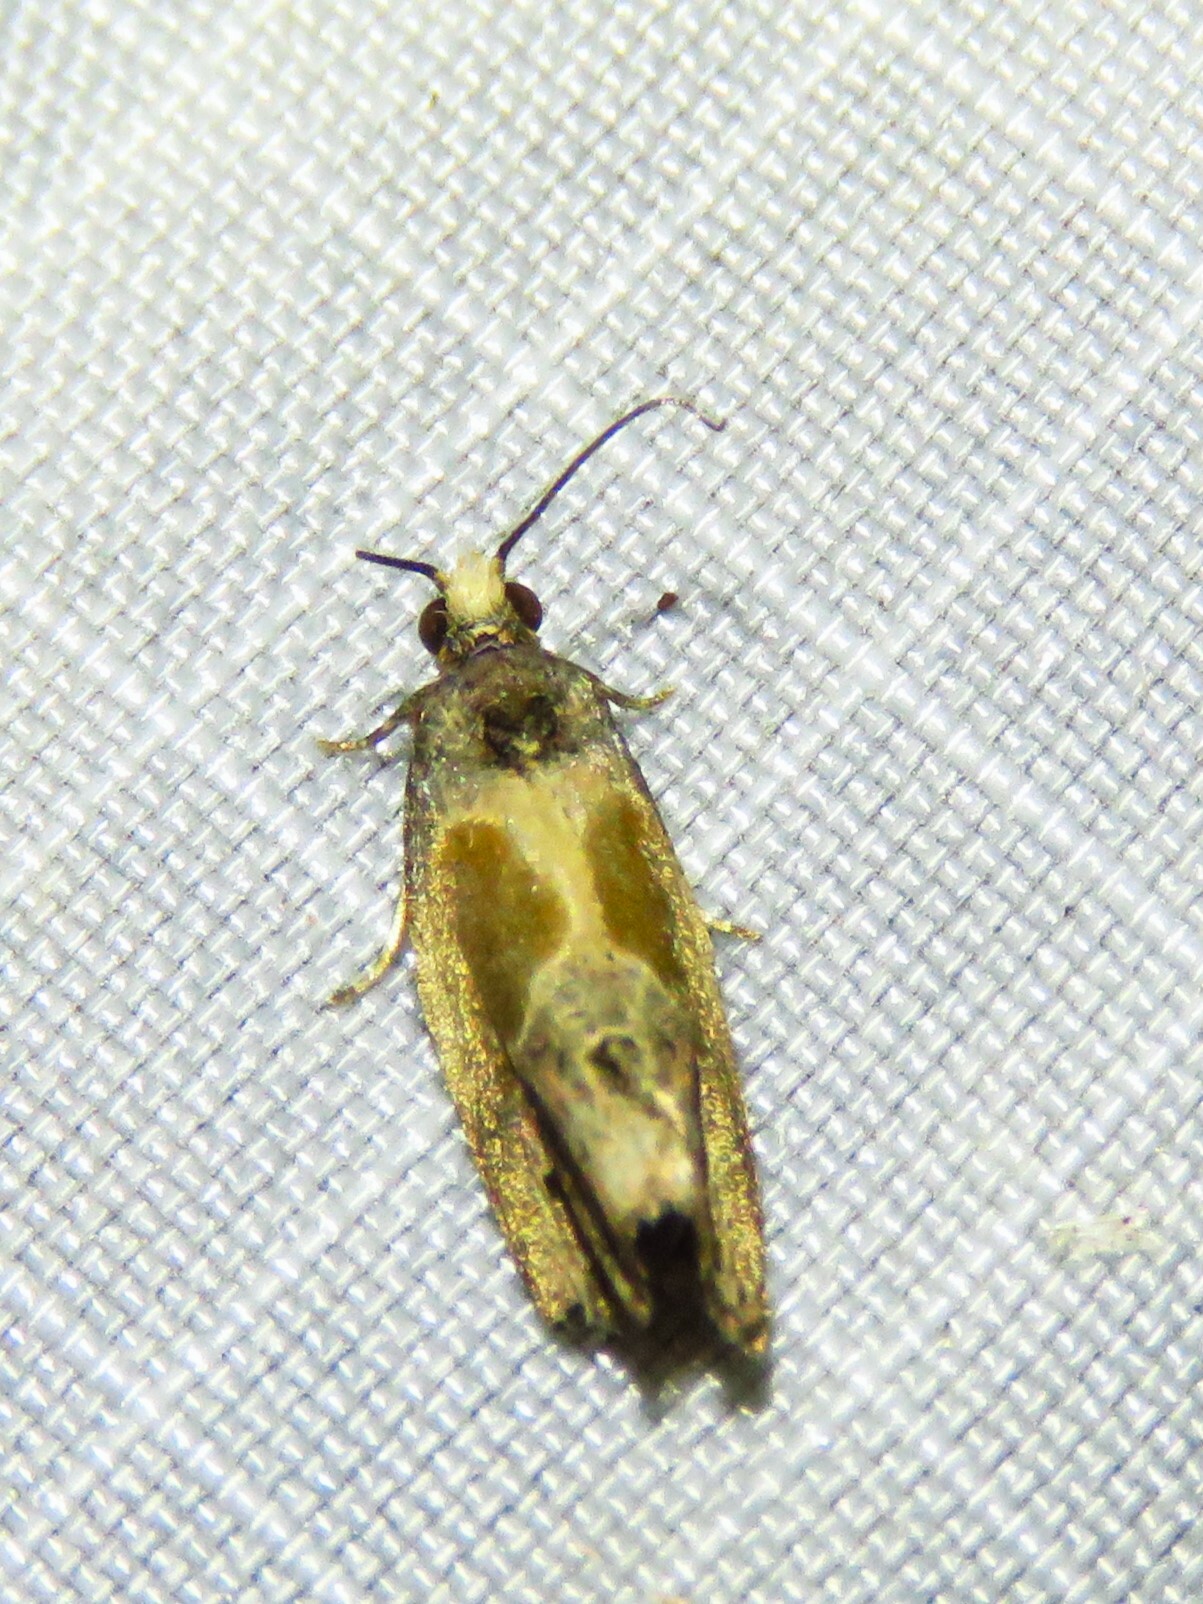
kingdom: Animalia
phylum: Arthropoda
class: Insecta
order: Lepidoptera
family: Tortricidae
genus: Eumarozia
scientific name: Eumarozia malachitana
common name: Sculptured moth
